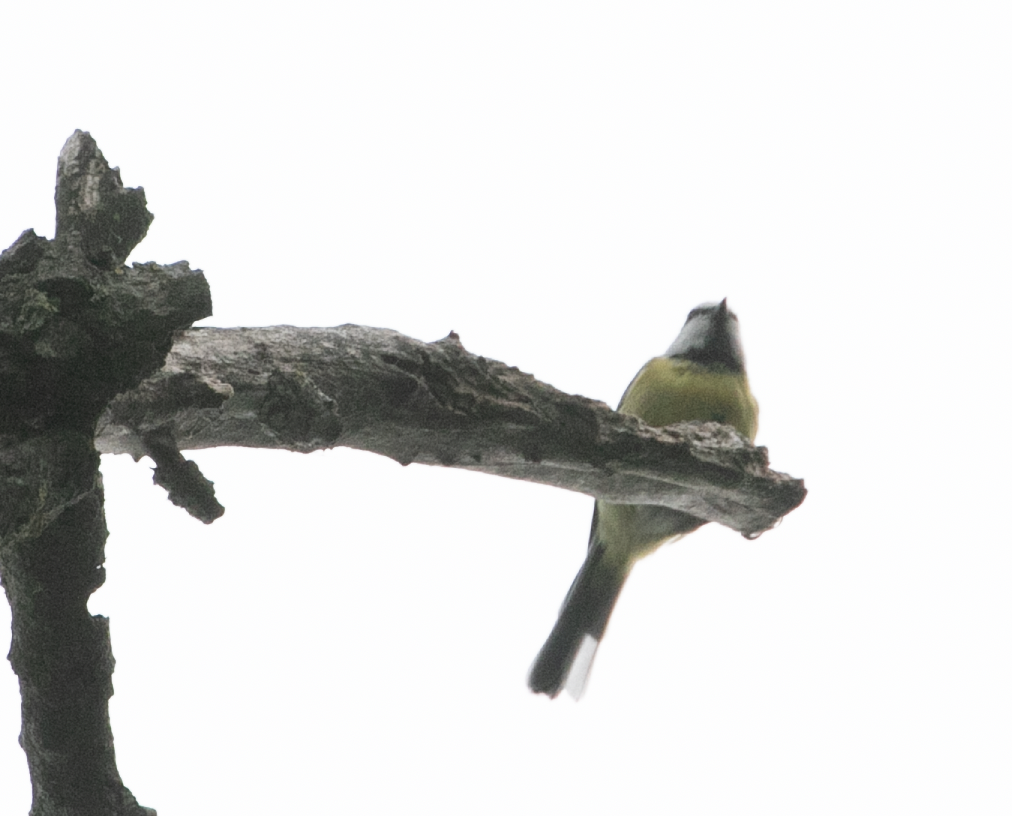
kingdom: Animalia
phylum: Chordata
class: Aves
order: Passeriformes
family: Paridae
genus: Cyanistes
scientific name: Cyanistes caeruleus
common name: Eurasian blue tit
